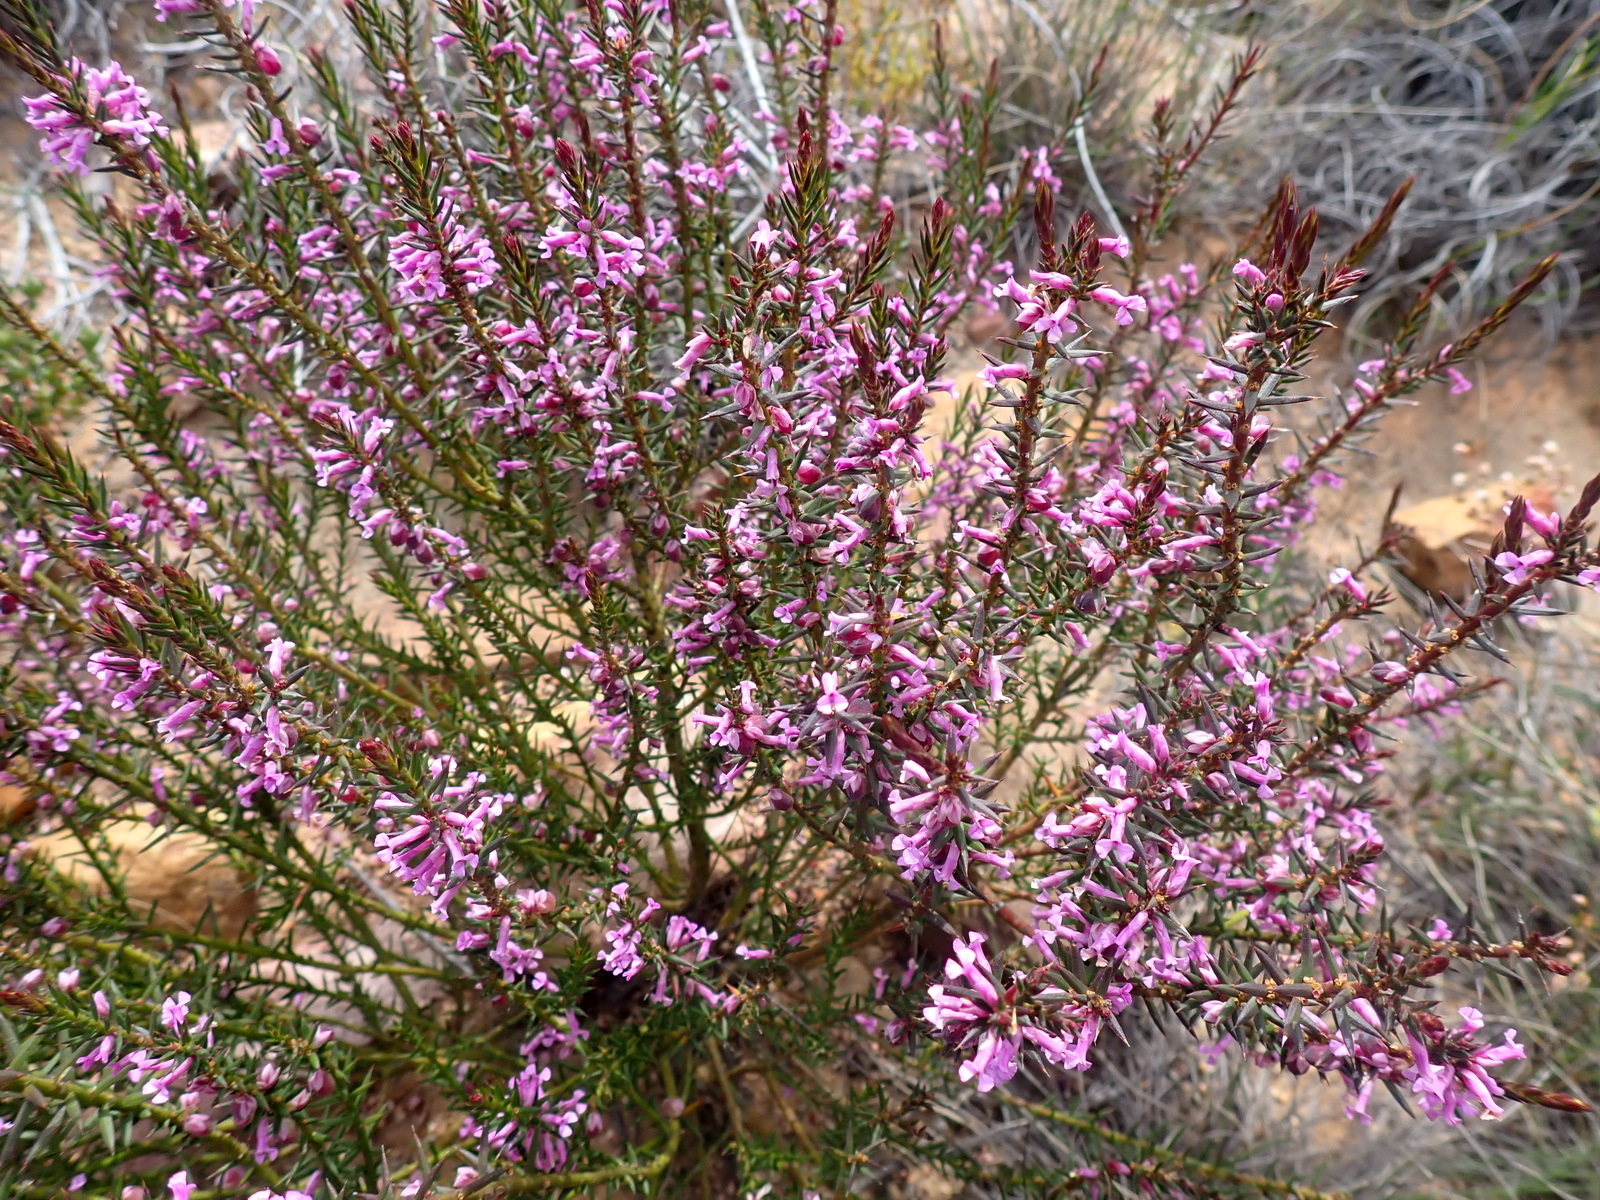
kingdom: Plantae
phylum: Tracheophyta
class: Magnoliopsida
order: Fabales
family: Polygalaceae
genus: Muraltia
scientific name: Muraltia juniperifolia
